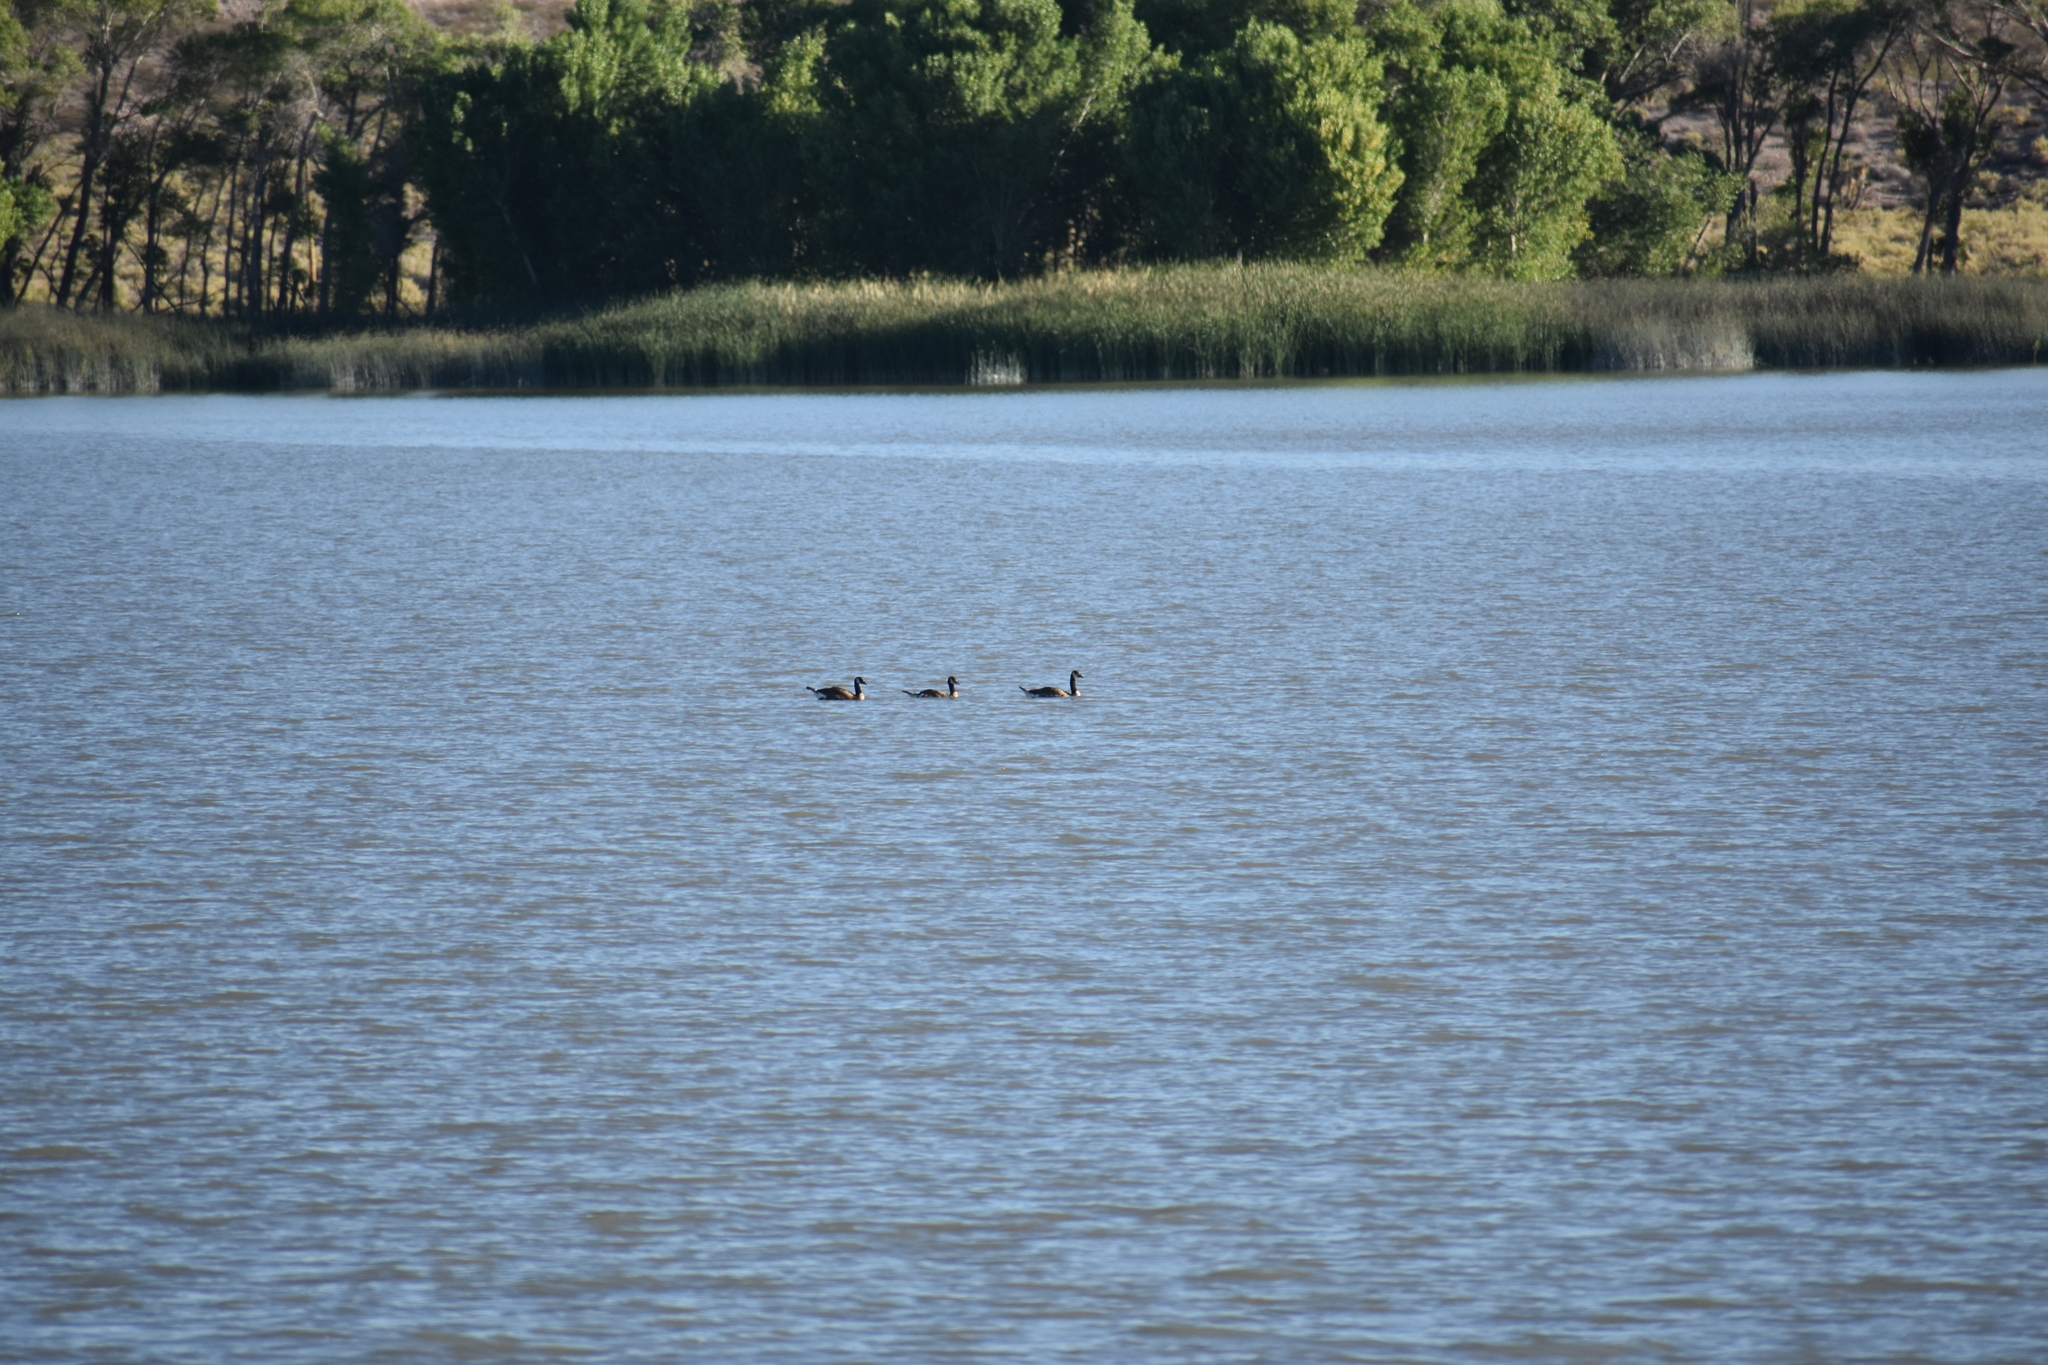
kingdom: Animalia
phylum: Chordata
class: Aves
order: Anseriformes
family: Anatidae
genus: Branta
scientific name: Branta canadensis
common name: Canada goose
